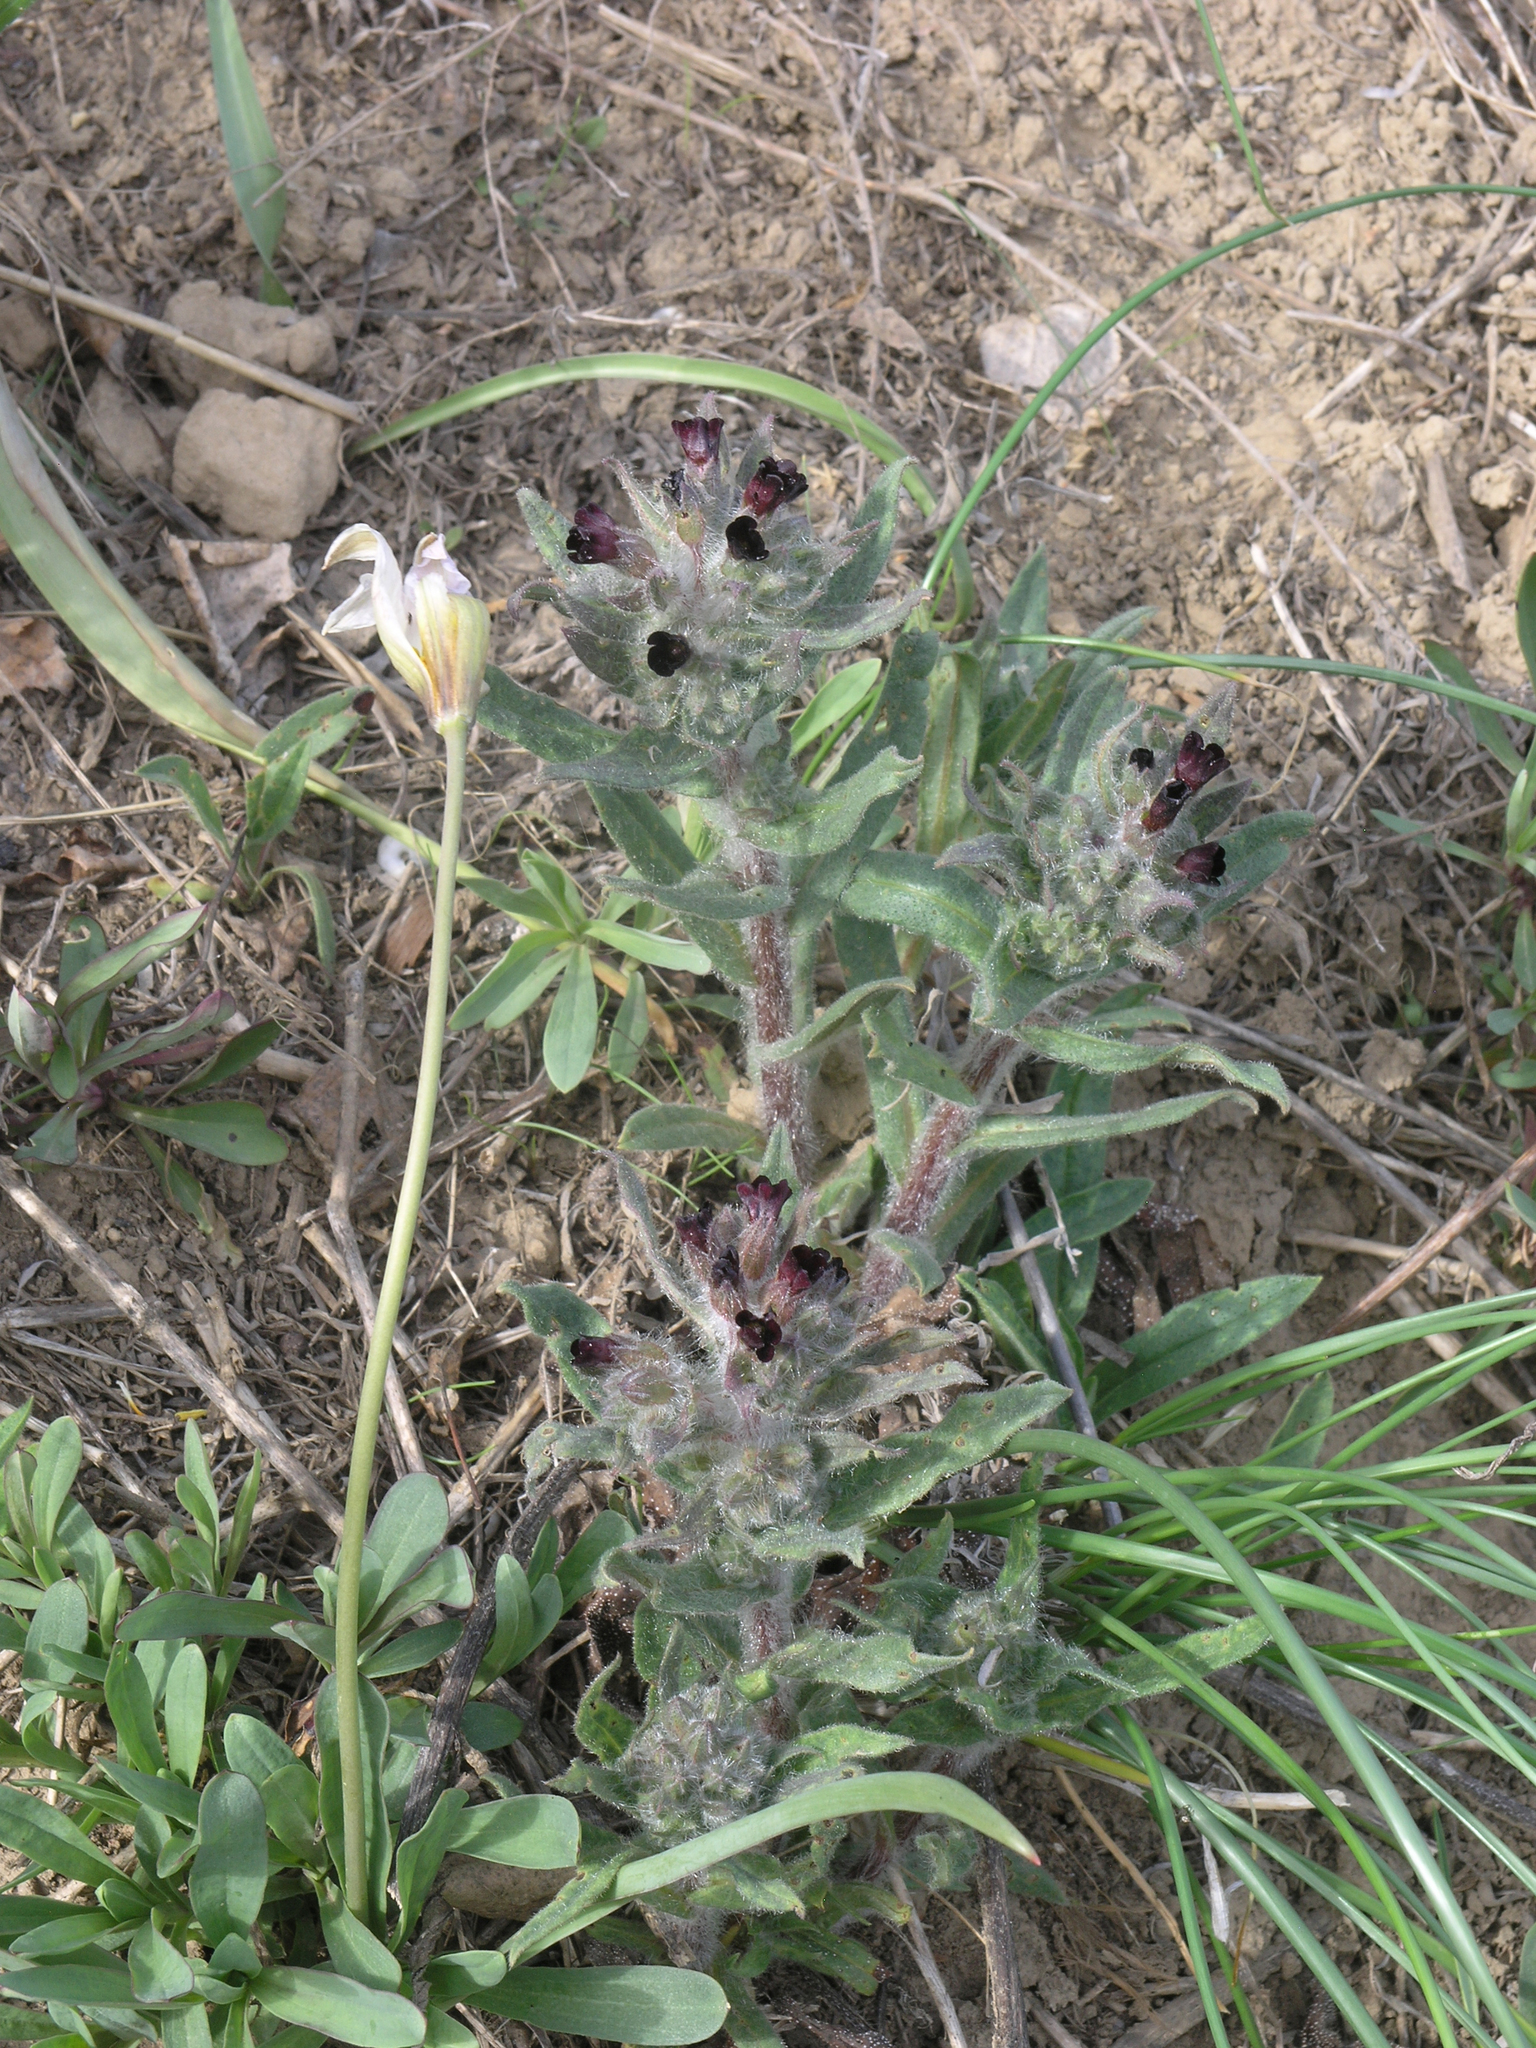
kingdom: Plantae
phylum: Tracheophyta
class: Magnoliopsida
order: Boraginales
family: Boraginaceae
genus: Nonea
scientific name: Nonea pulla
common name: Brown nonea
